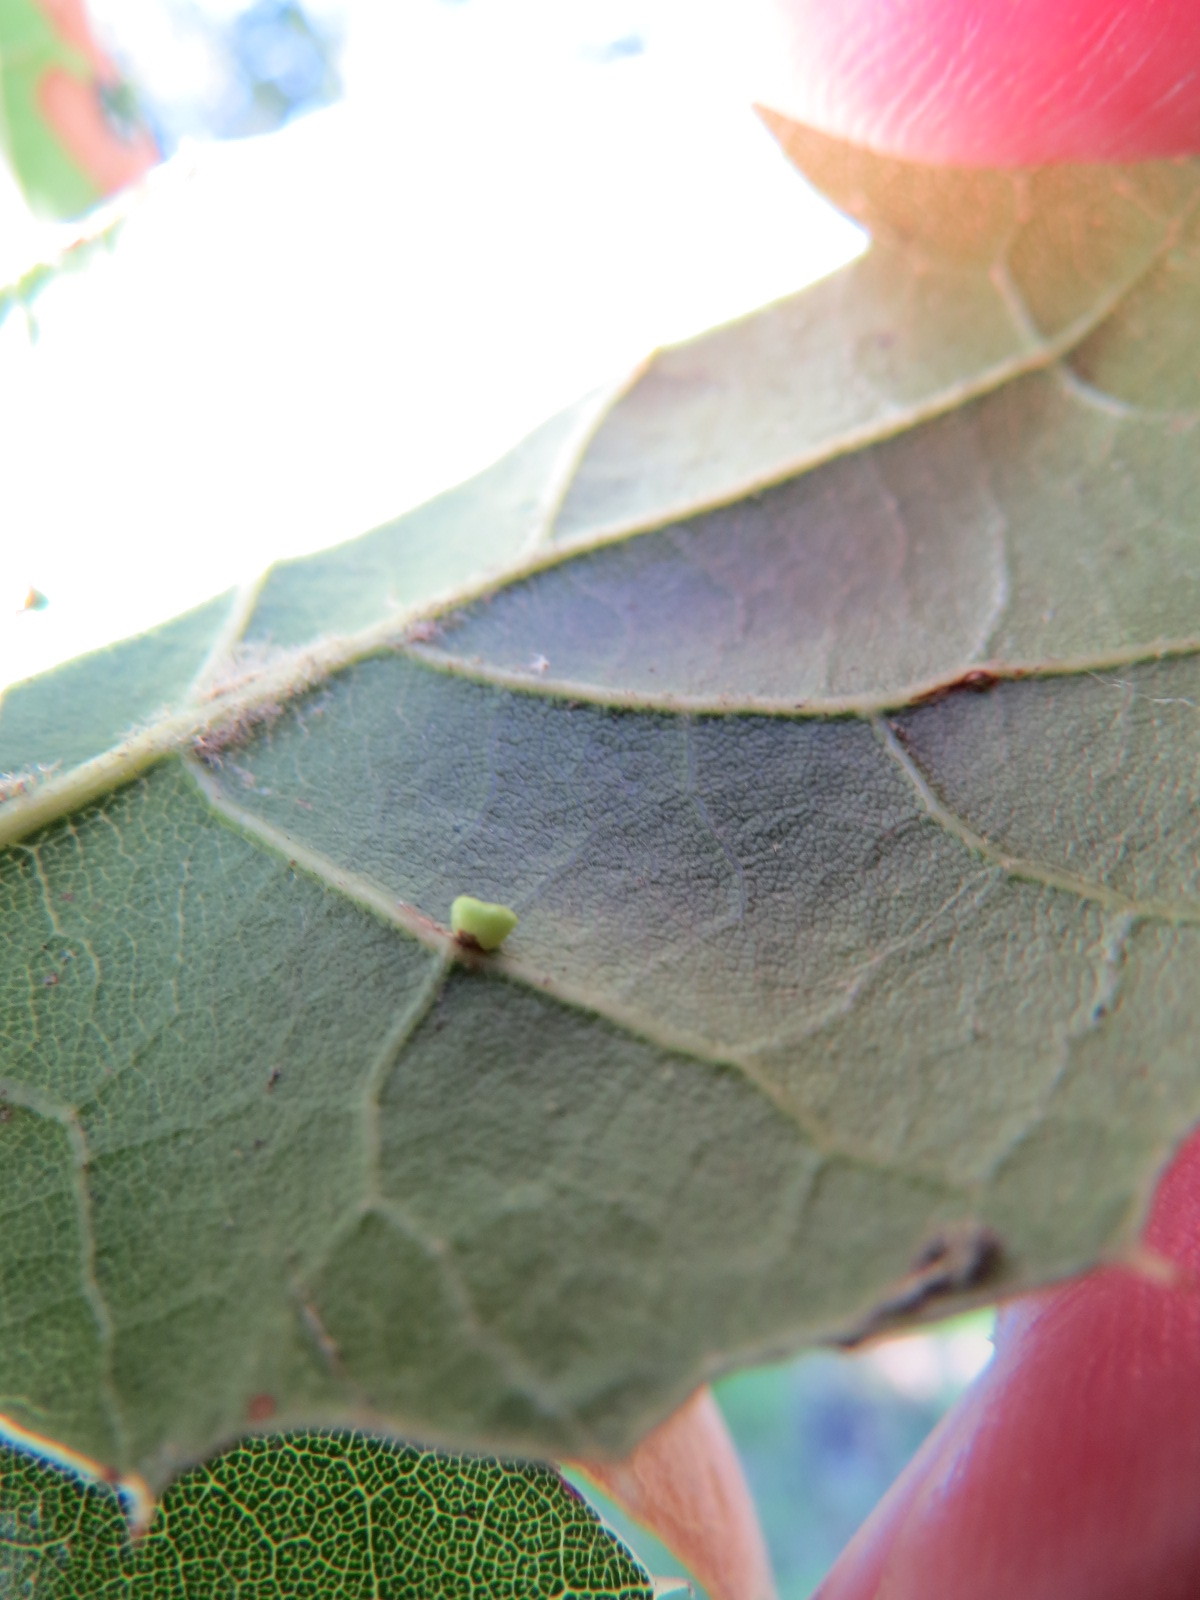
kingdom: Animalia
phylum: Arthropoda
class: Insecta
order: Hymenoptera
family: Cynipidae
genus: Dryocosmus
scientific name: Dryocosmus
